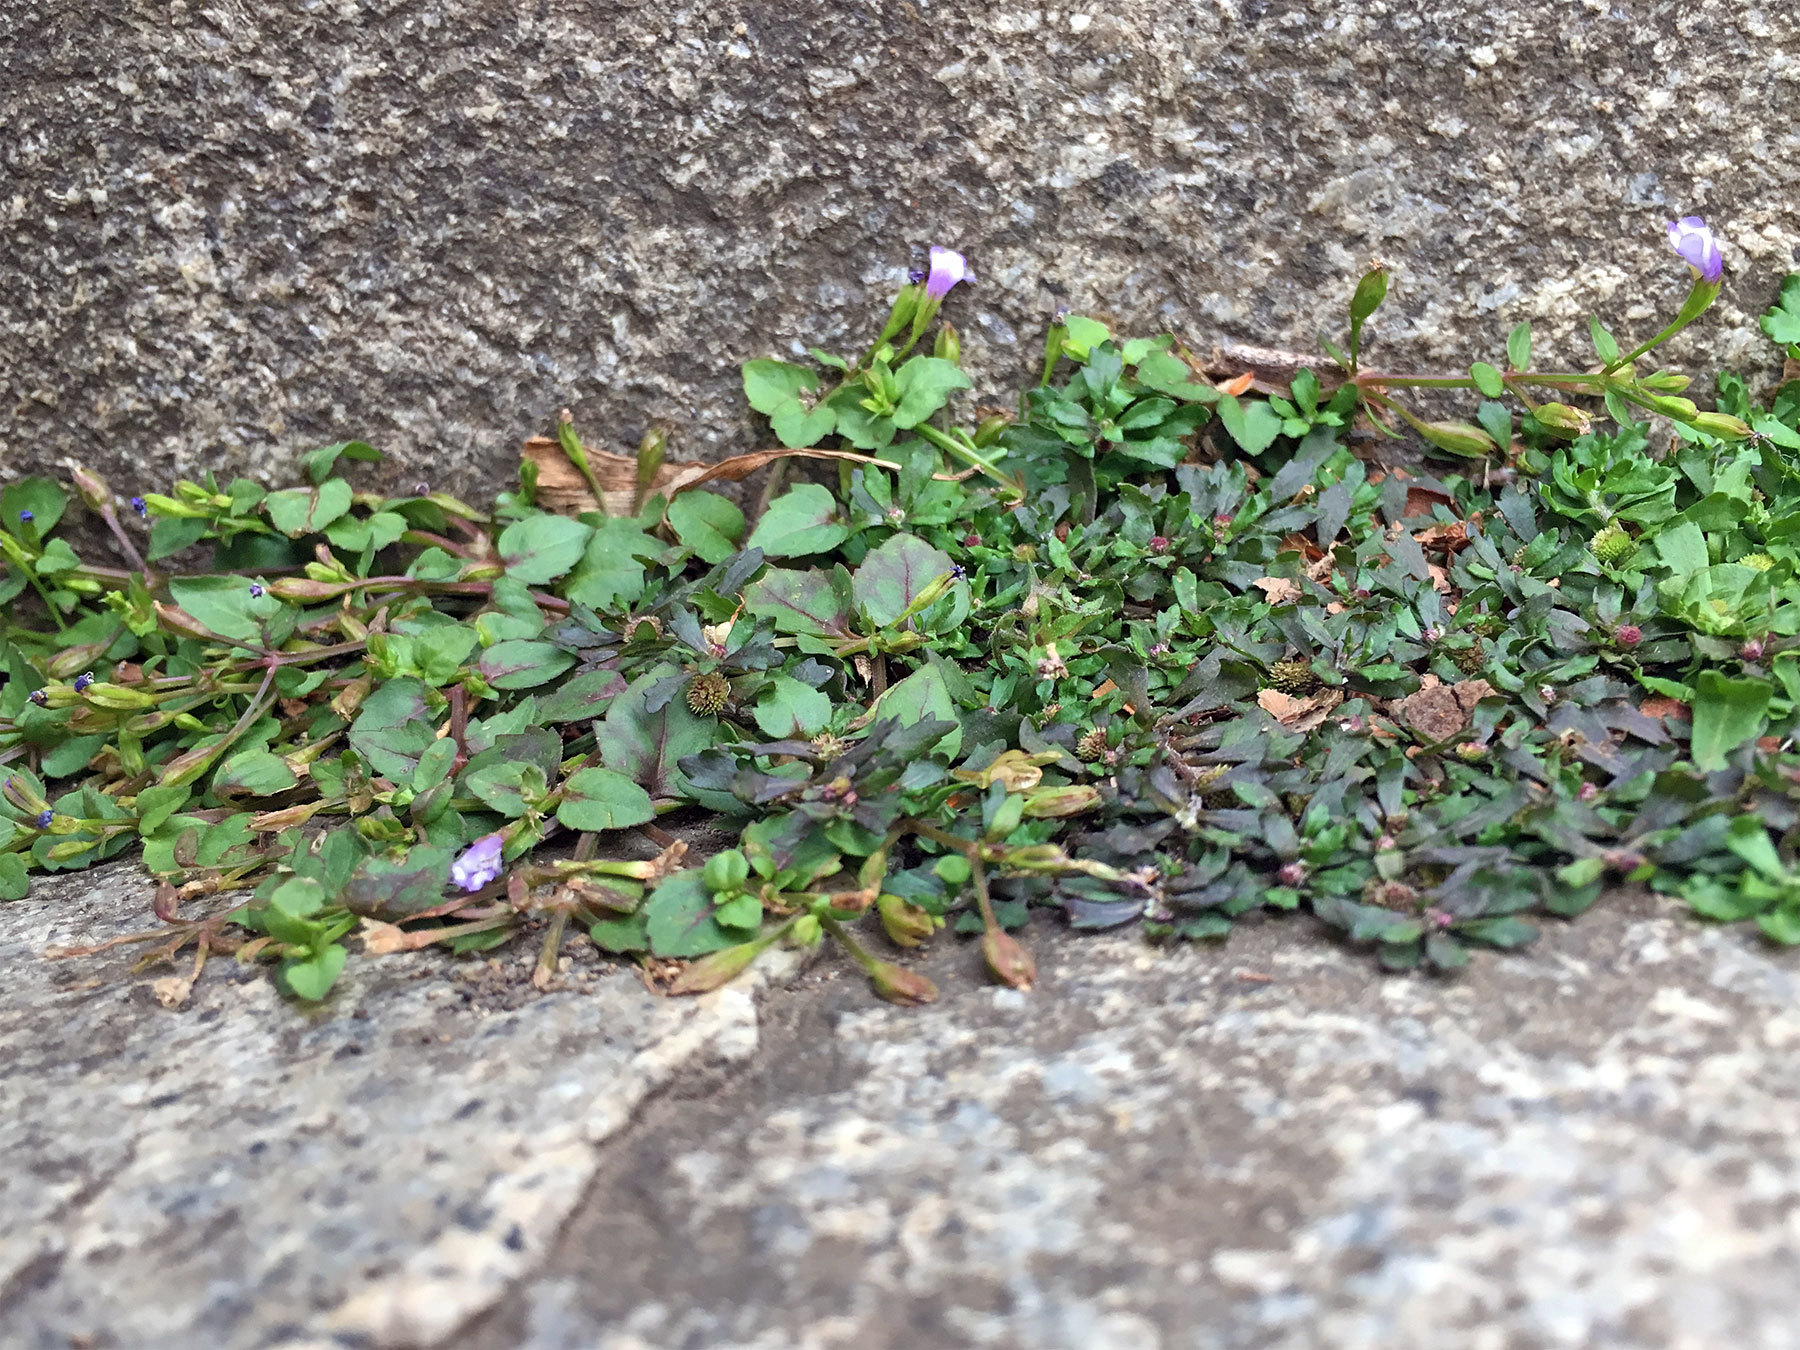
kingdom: Plantae
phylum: Tracheophyta
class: Magnoliopsida
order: Lamiales
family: Linderniaceae
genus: Torenia
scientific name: Torenia crustacea
